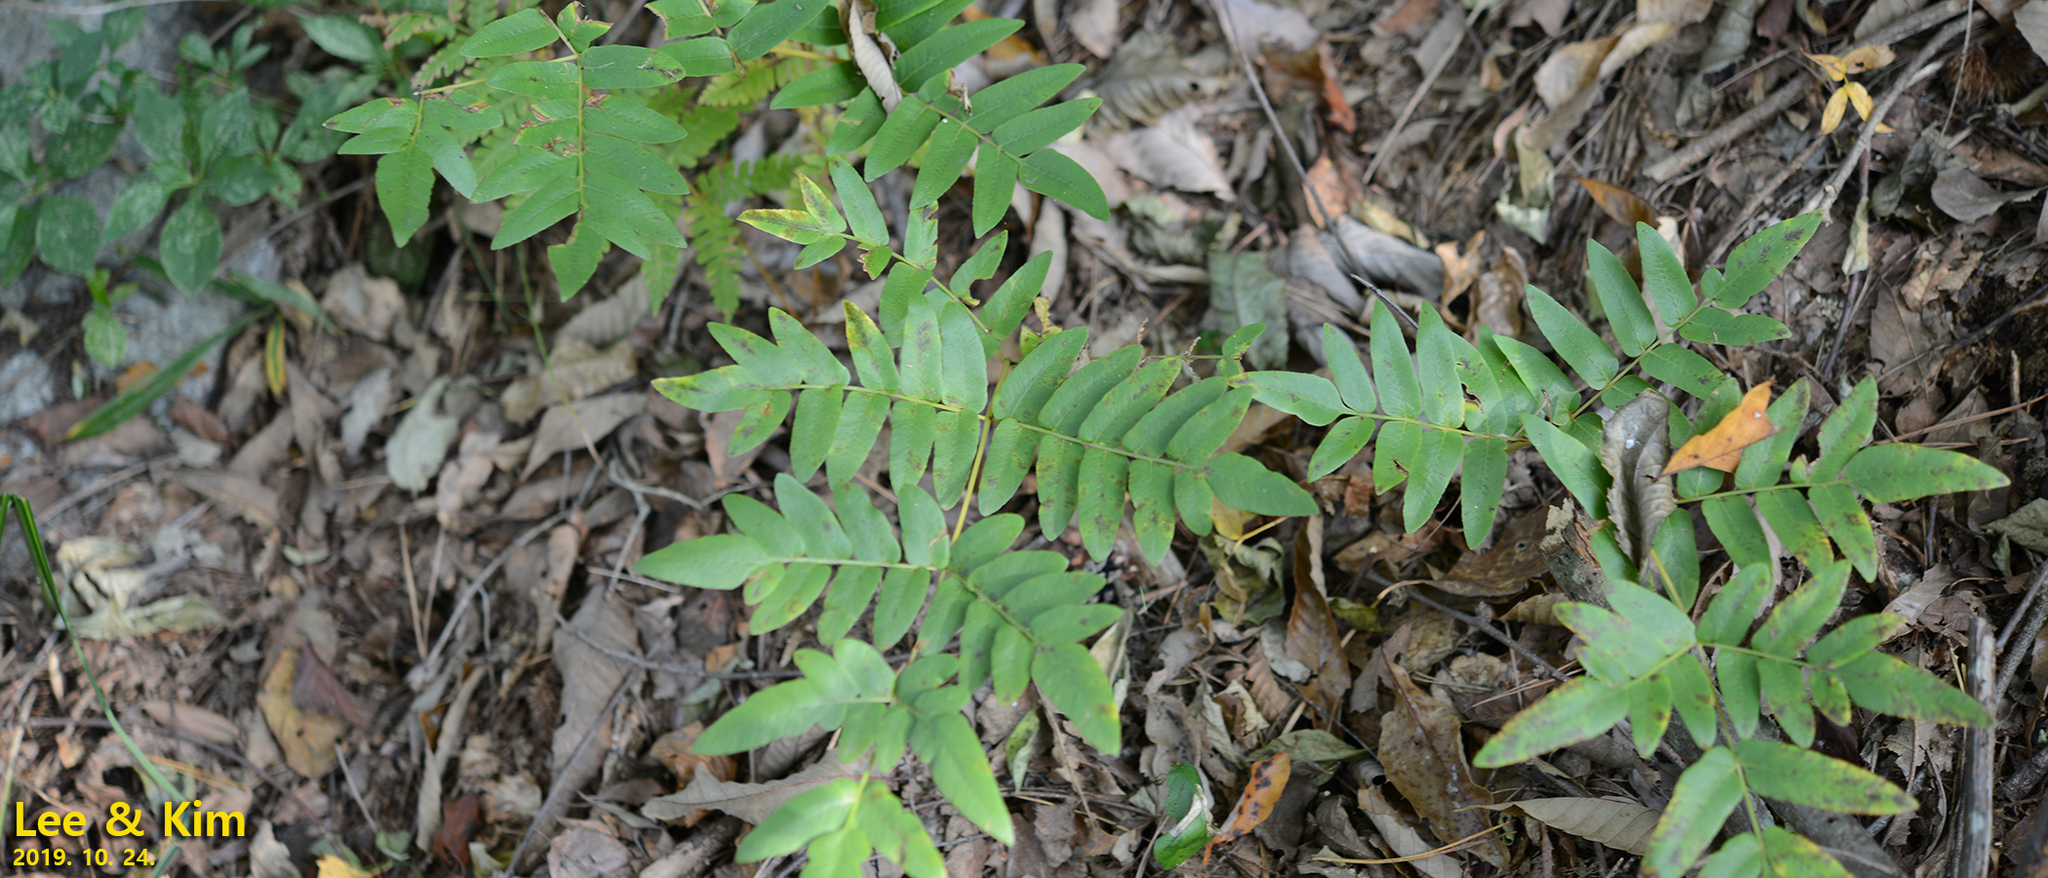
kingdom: Plantae
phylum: Tracheophyta
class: Polypodiopsida
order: Osmundales
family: Osmundaceae
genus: Osmunda
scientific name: Osmunda japonica
